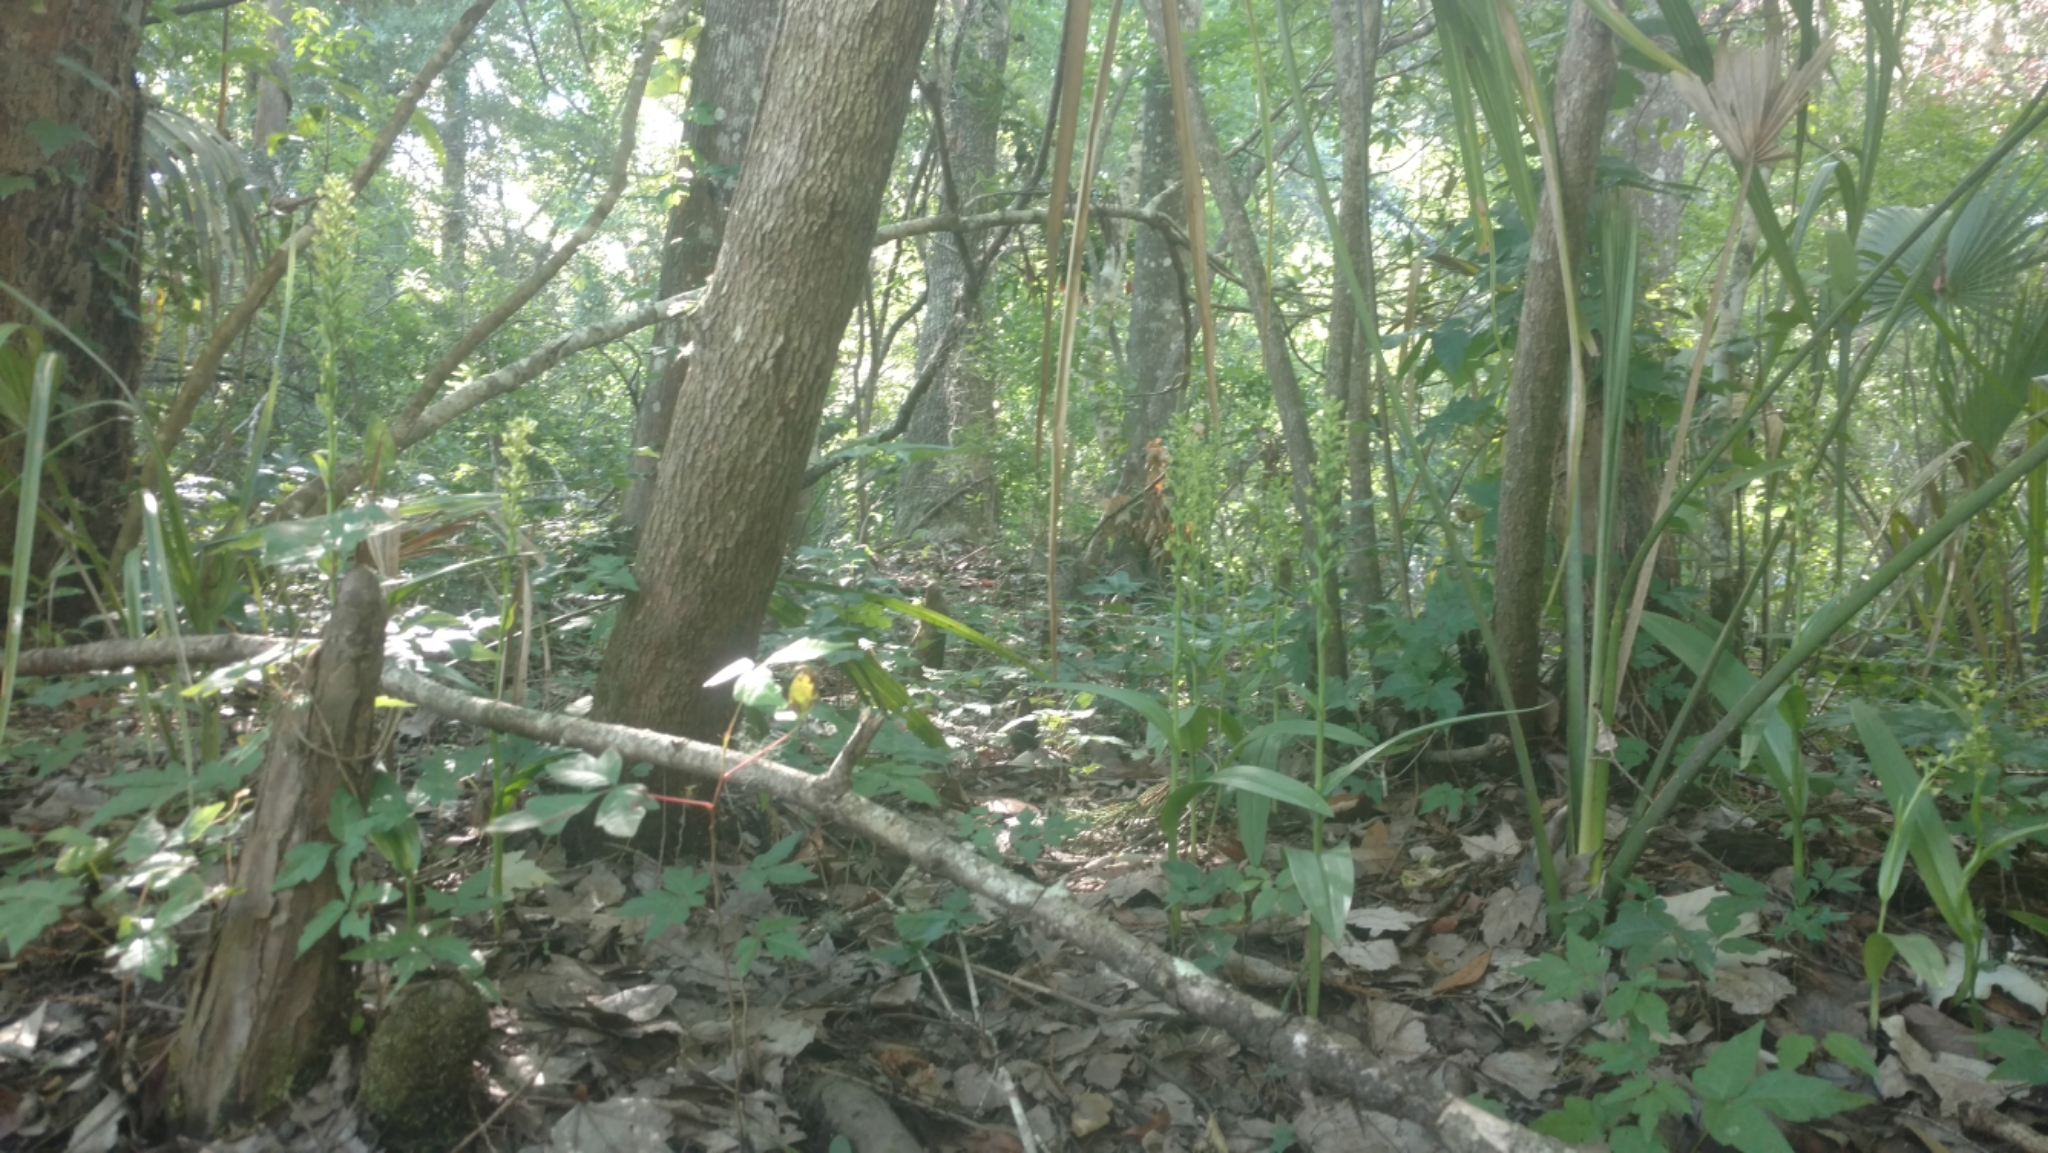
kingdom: Plantae
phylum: Tracheophyta
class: Liliopsida
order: Asparagales
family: Orchidaceae
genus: Platanthera
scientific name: Platanthera flava
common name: Gypsy-spikes
